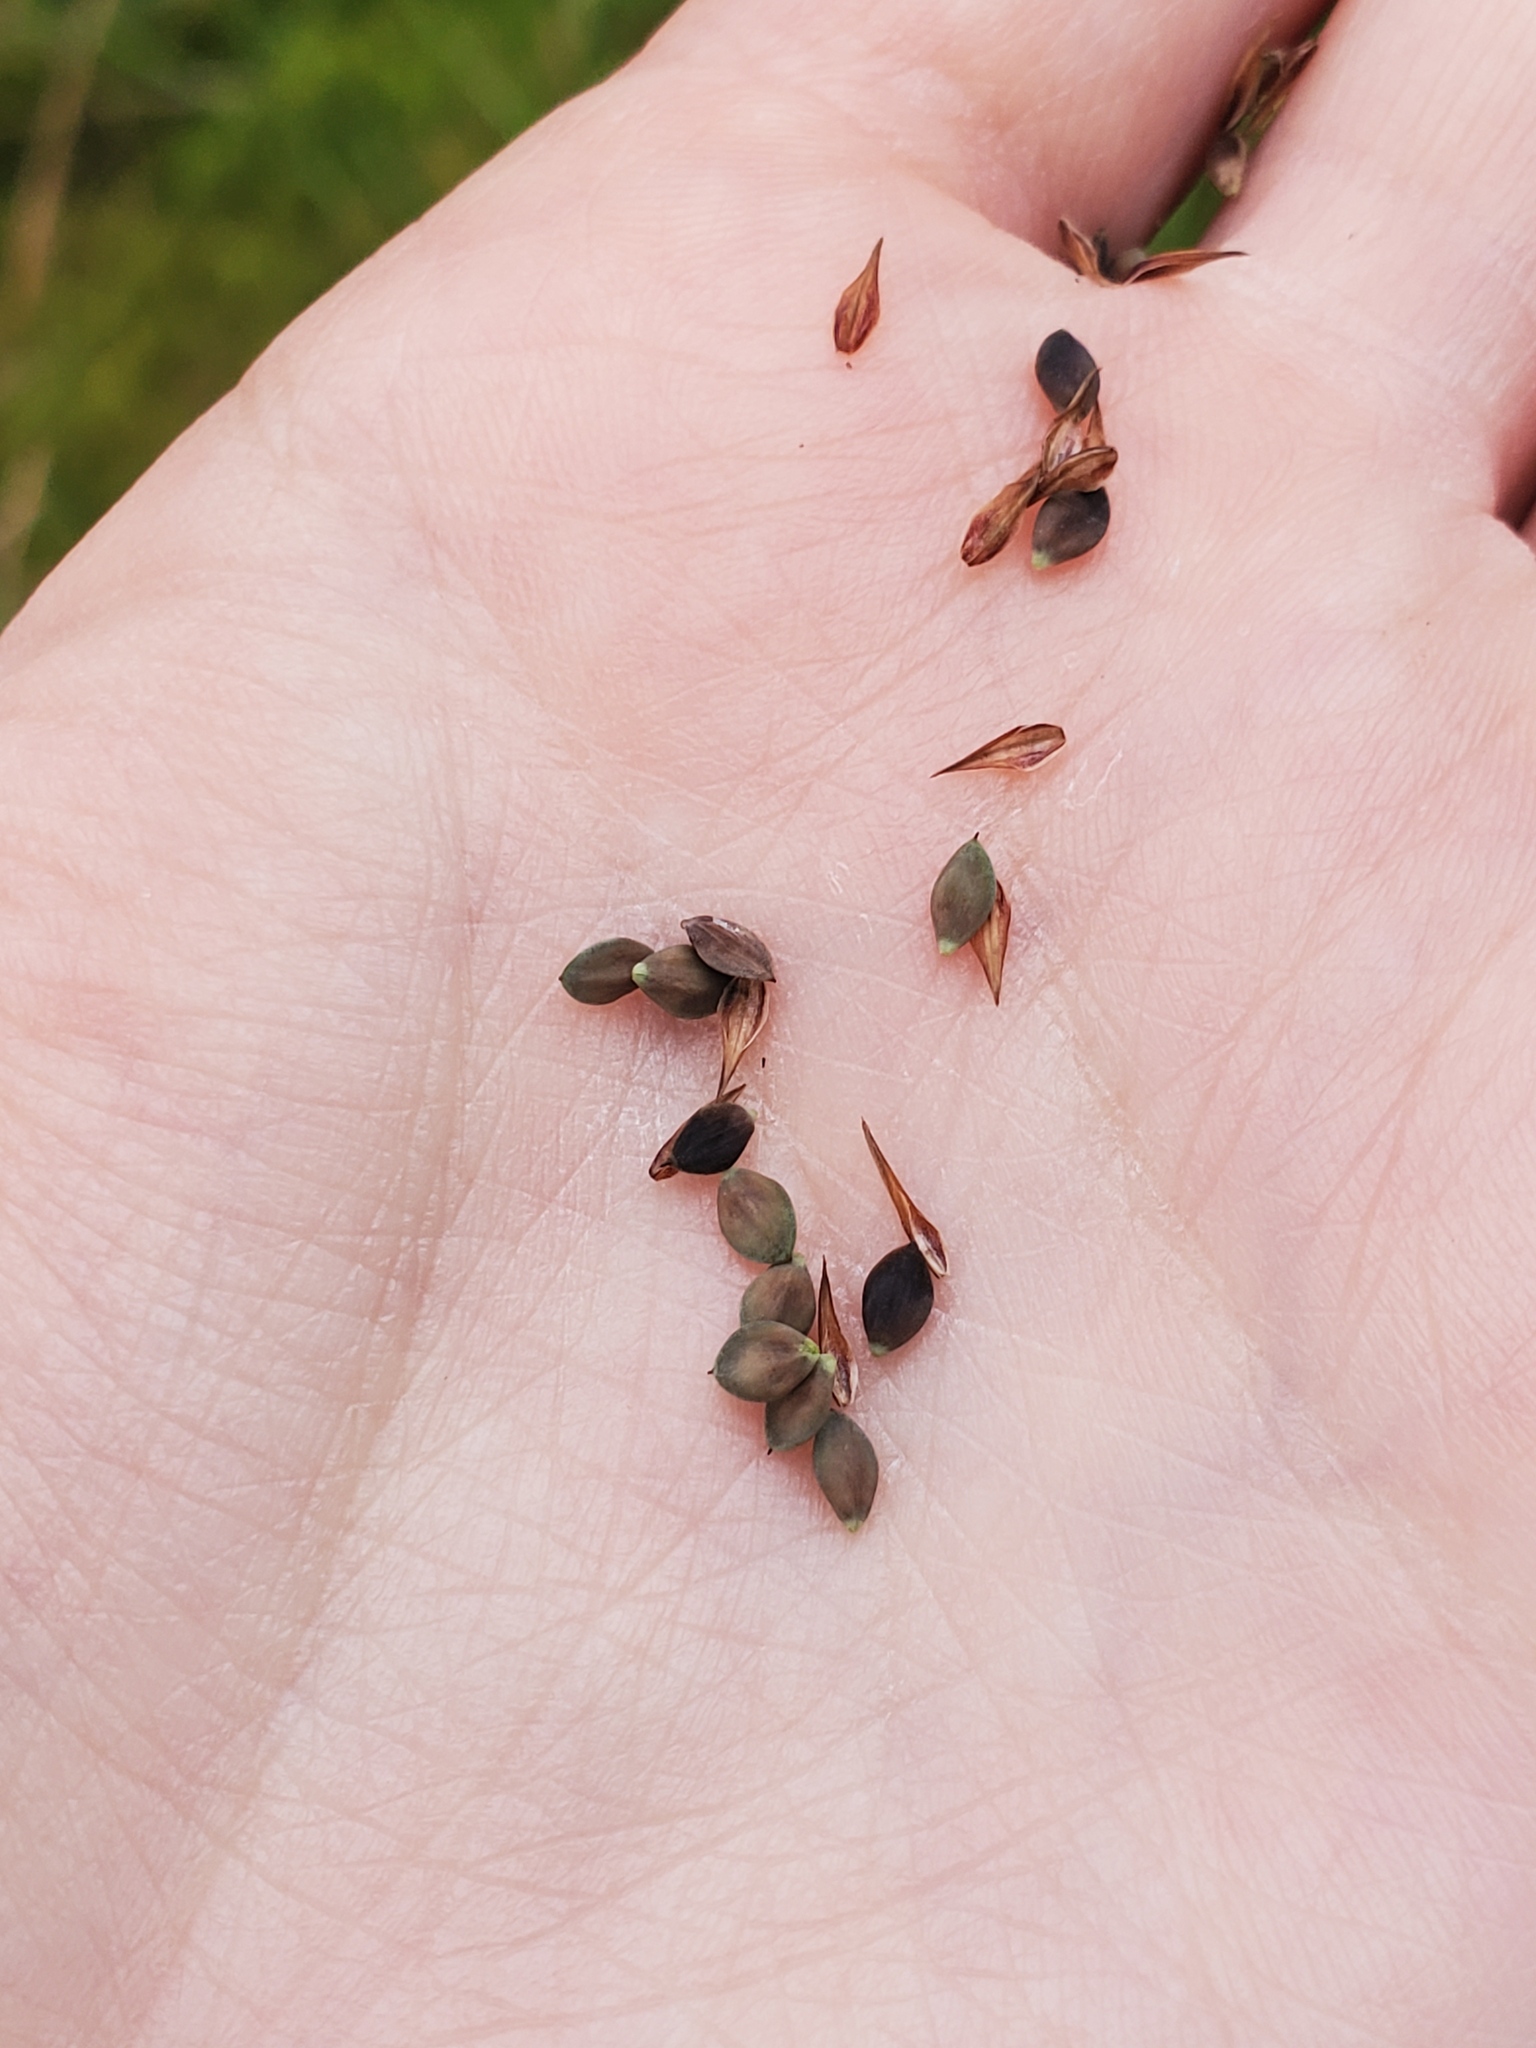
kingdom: Plantae
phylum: Tracheophyta
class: Liliopsida
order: Poales
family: Cyperaceae
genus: Carex
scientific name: Carex magellanica
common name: Bog sedge
